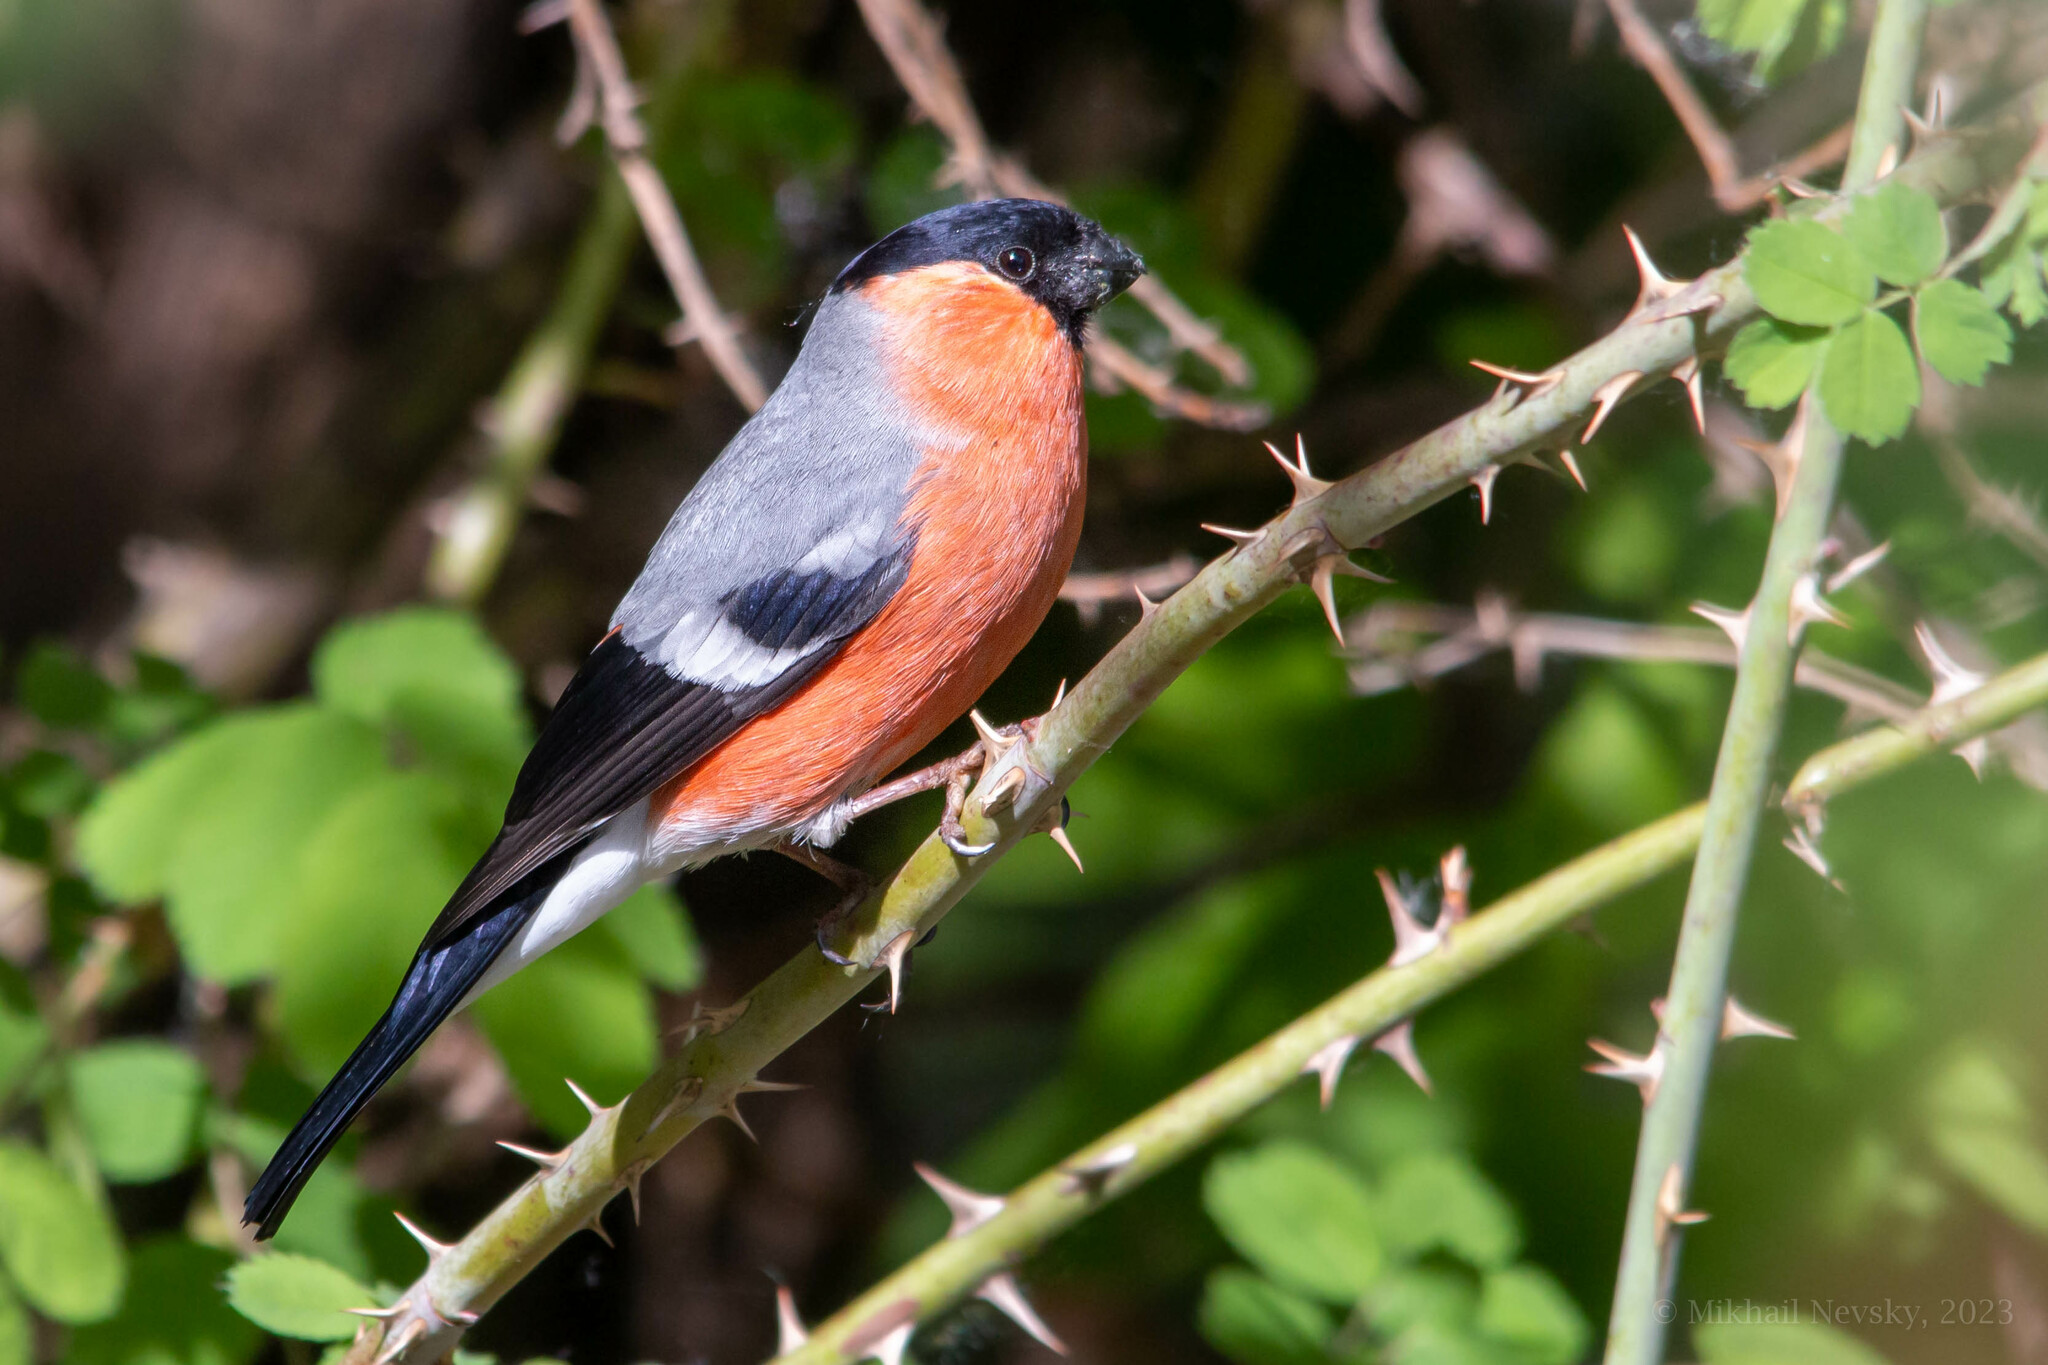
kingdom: Animalia
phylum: Chordata
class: Aves
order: Passeriformes
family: Fringillidae
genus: Pyrrhula
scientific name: Pyrrhula pyrrhula
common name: Eurasian bullfinch
